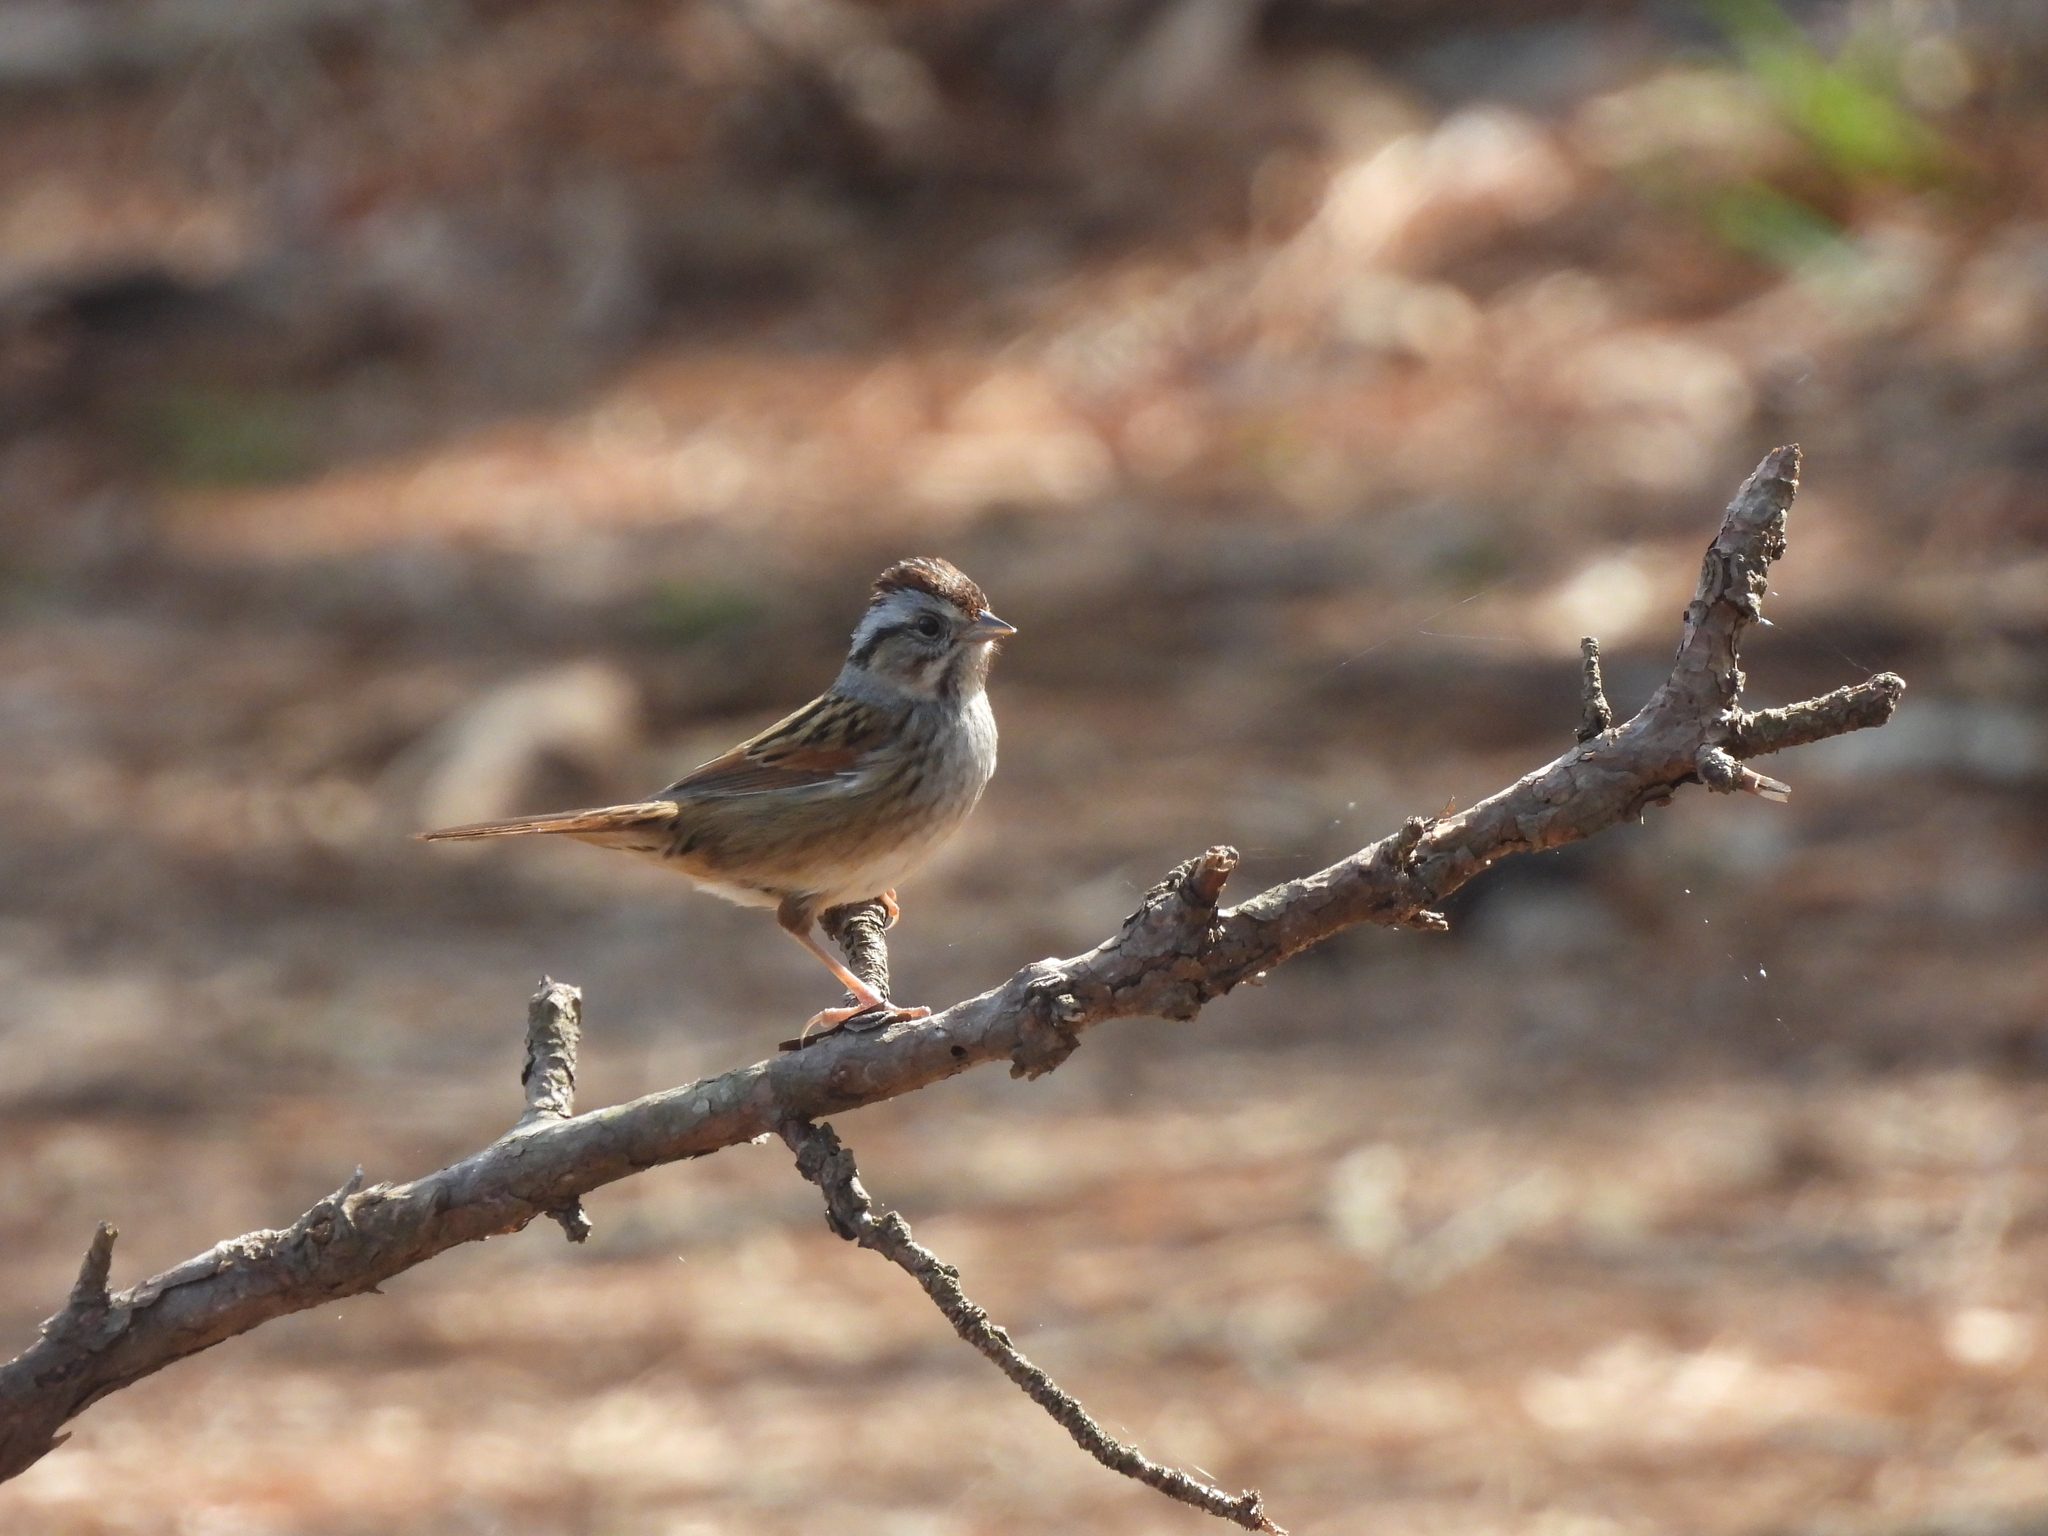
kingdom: Animalia
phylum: Chordata
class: Aves
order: Passeriformes
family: Passerellidae
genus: Melospiza
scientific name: Melospiza georgiana
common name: Swamp sparrow
